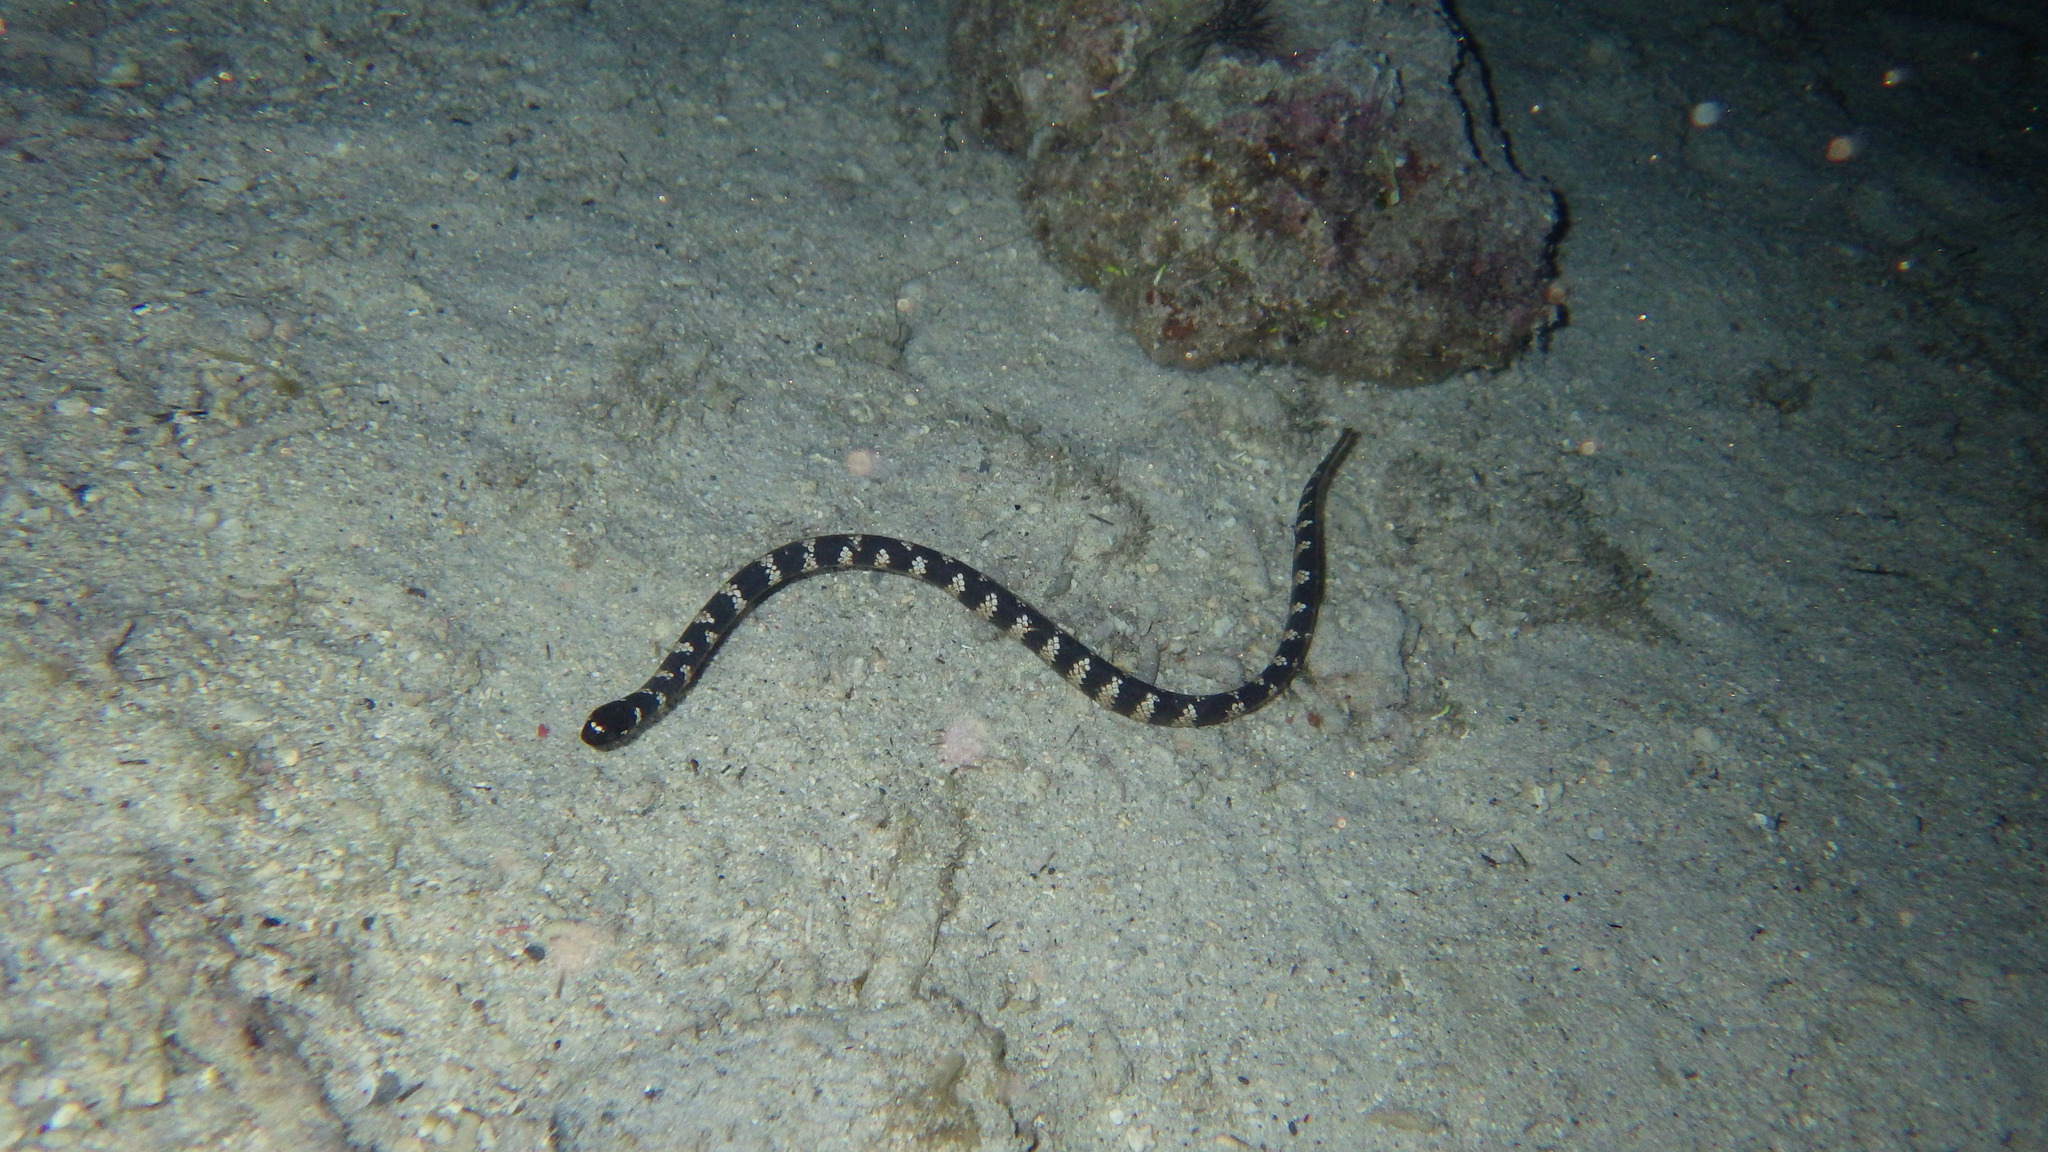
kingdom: Animalia
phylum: Chordata
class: Squamata
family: Elapidae
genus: Emydocephalus
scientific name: Emydocephalus ijimae
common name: Turtlehead sea snake
